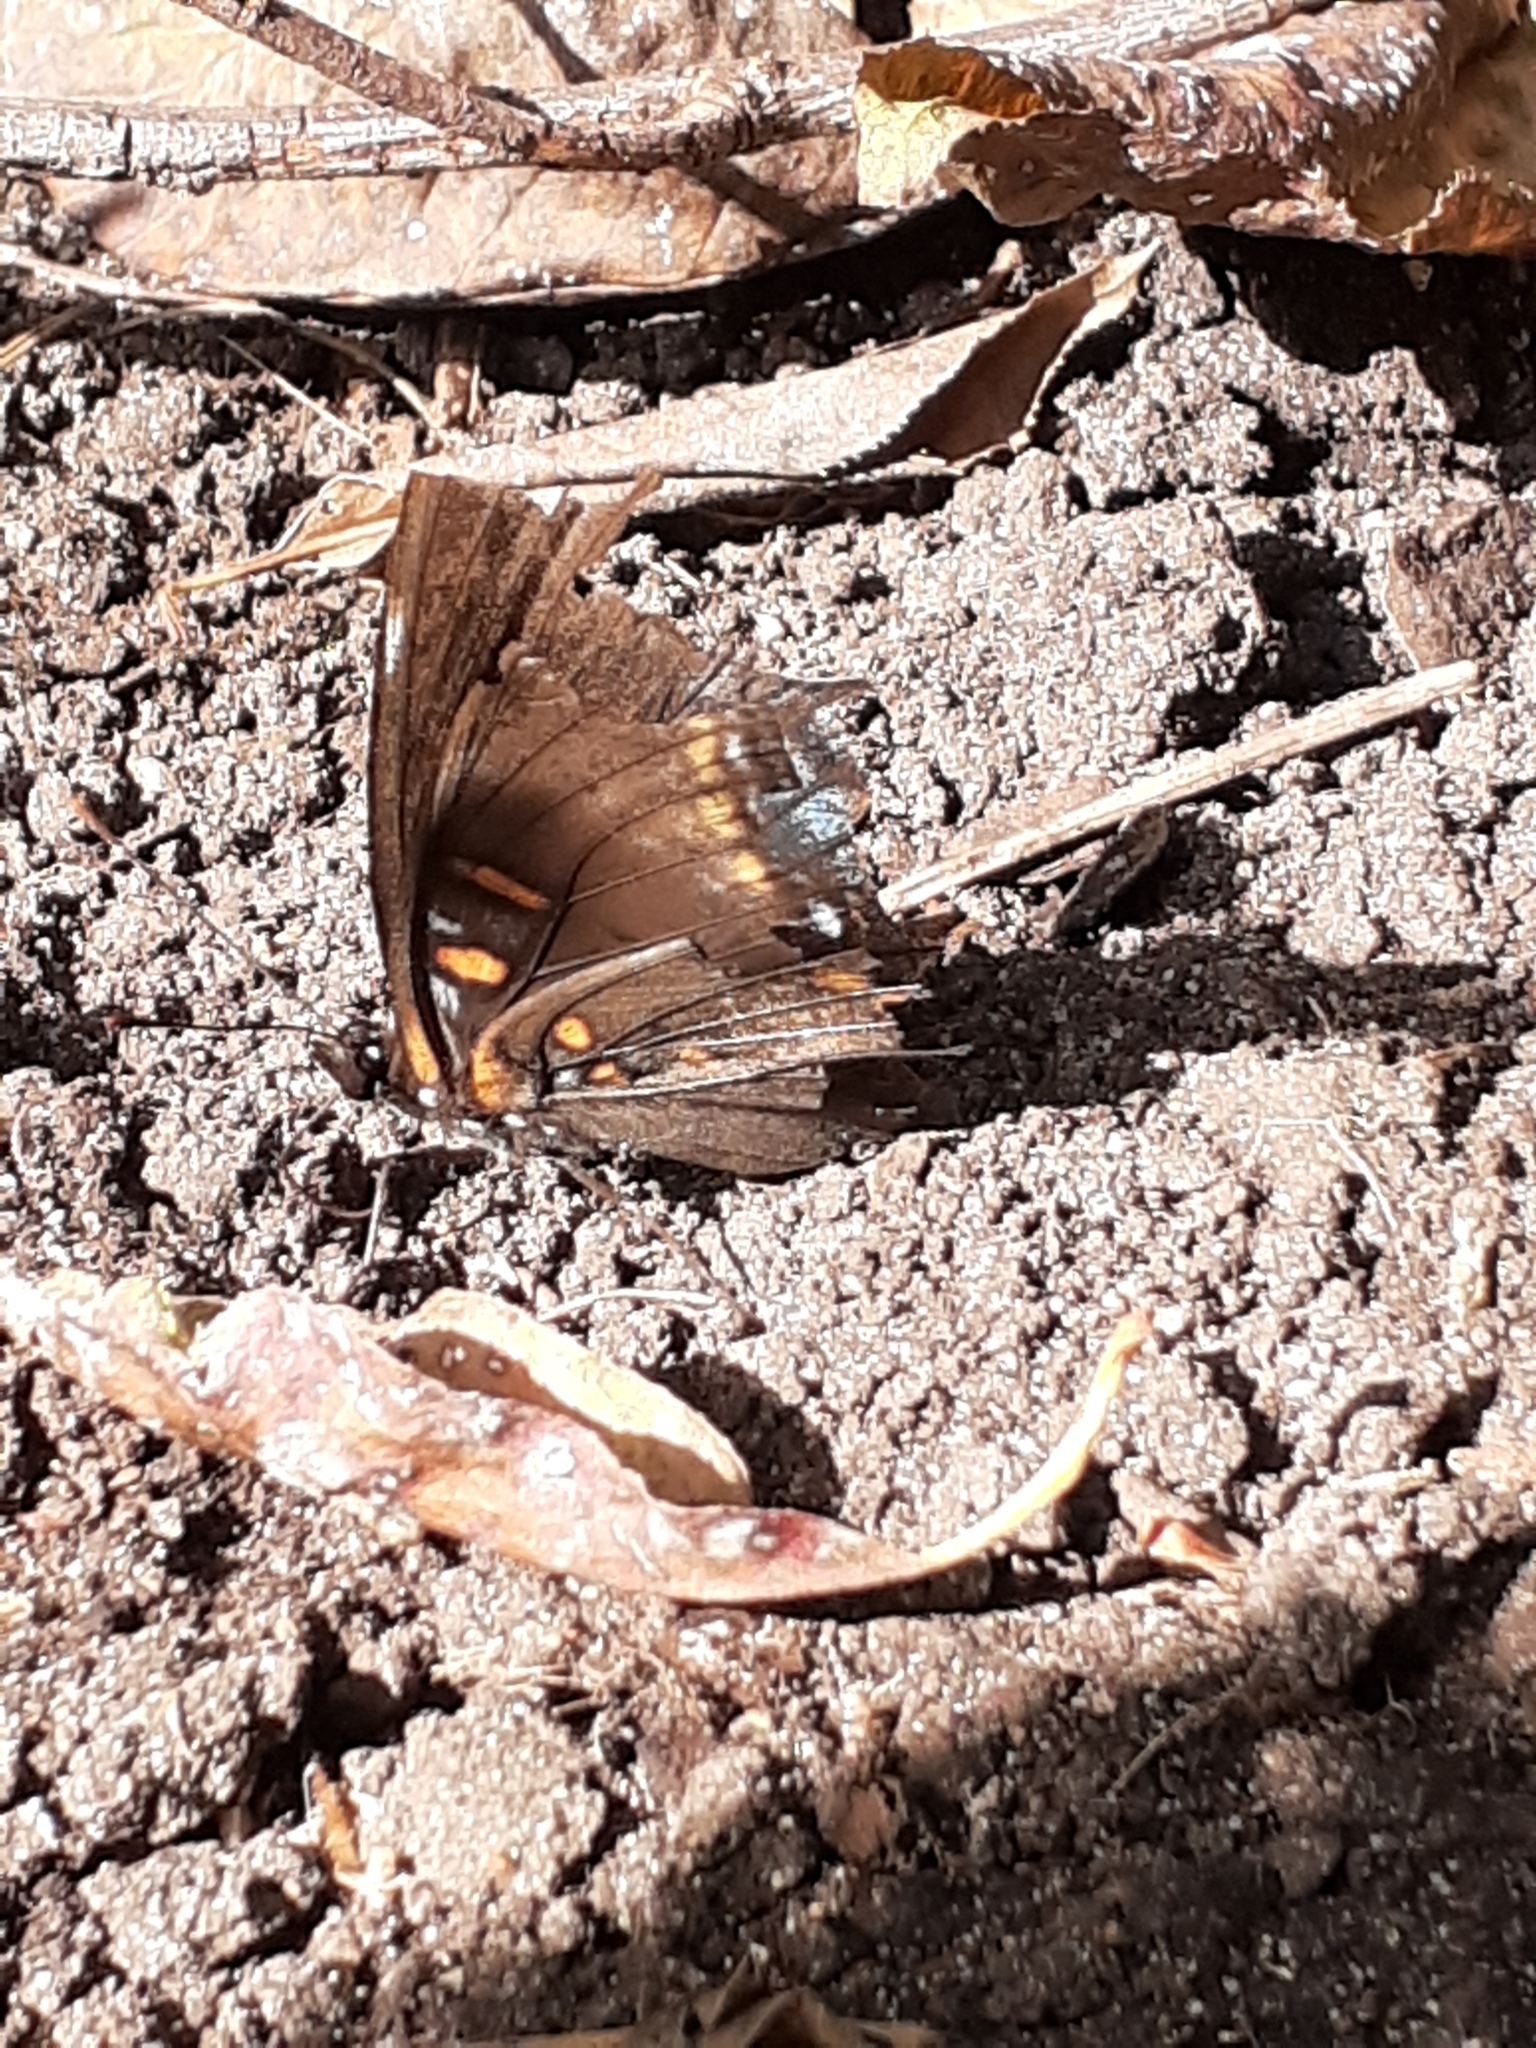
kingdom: Animalia
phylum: Arthropoda
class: Insecta
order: Lepidoptera
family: Nymphalidae
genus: Limenitis
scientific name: Limenitis astyanax
